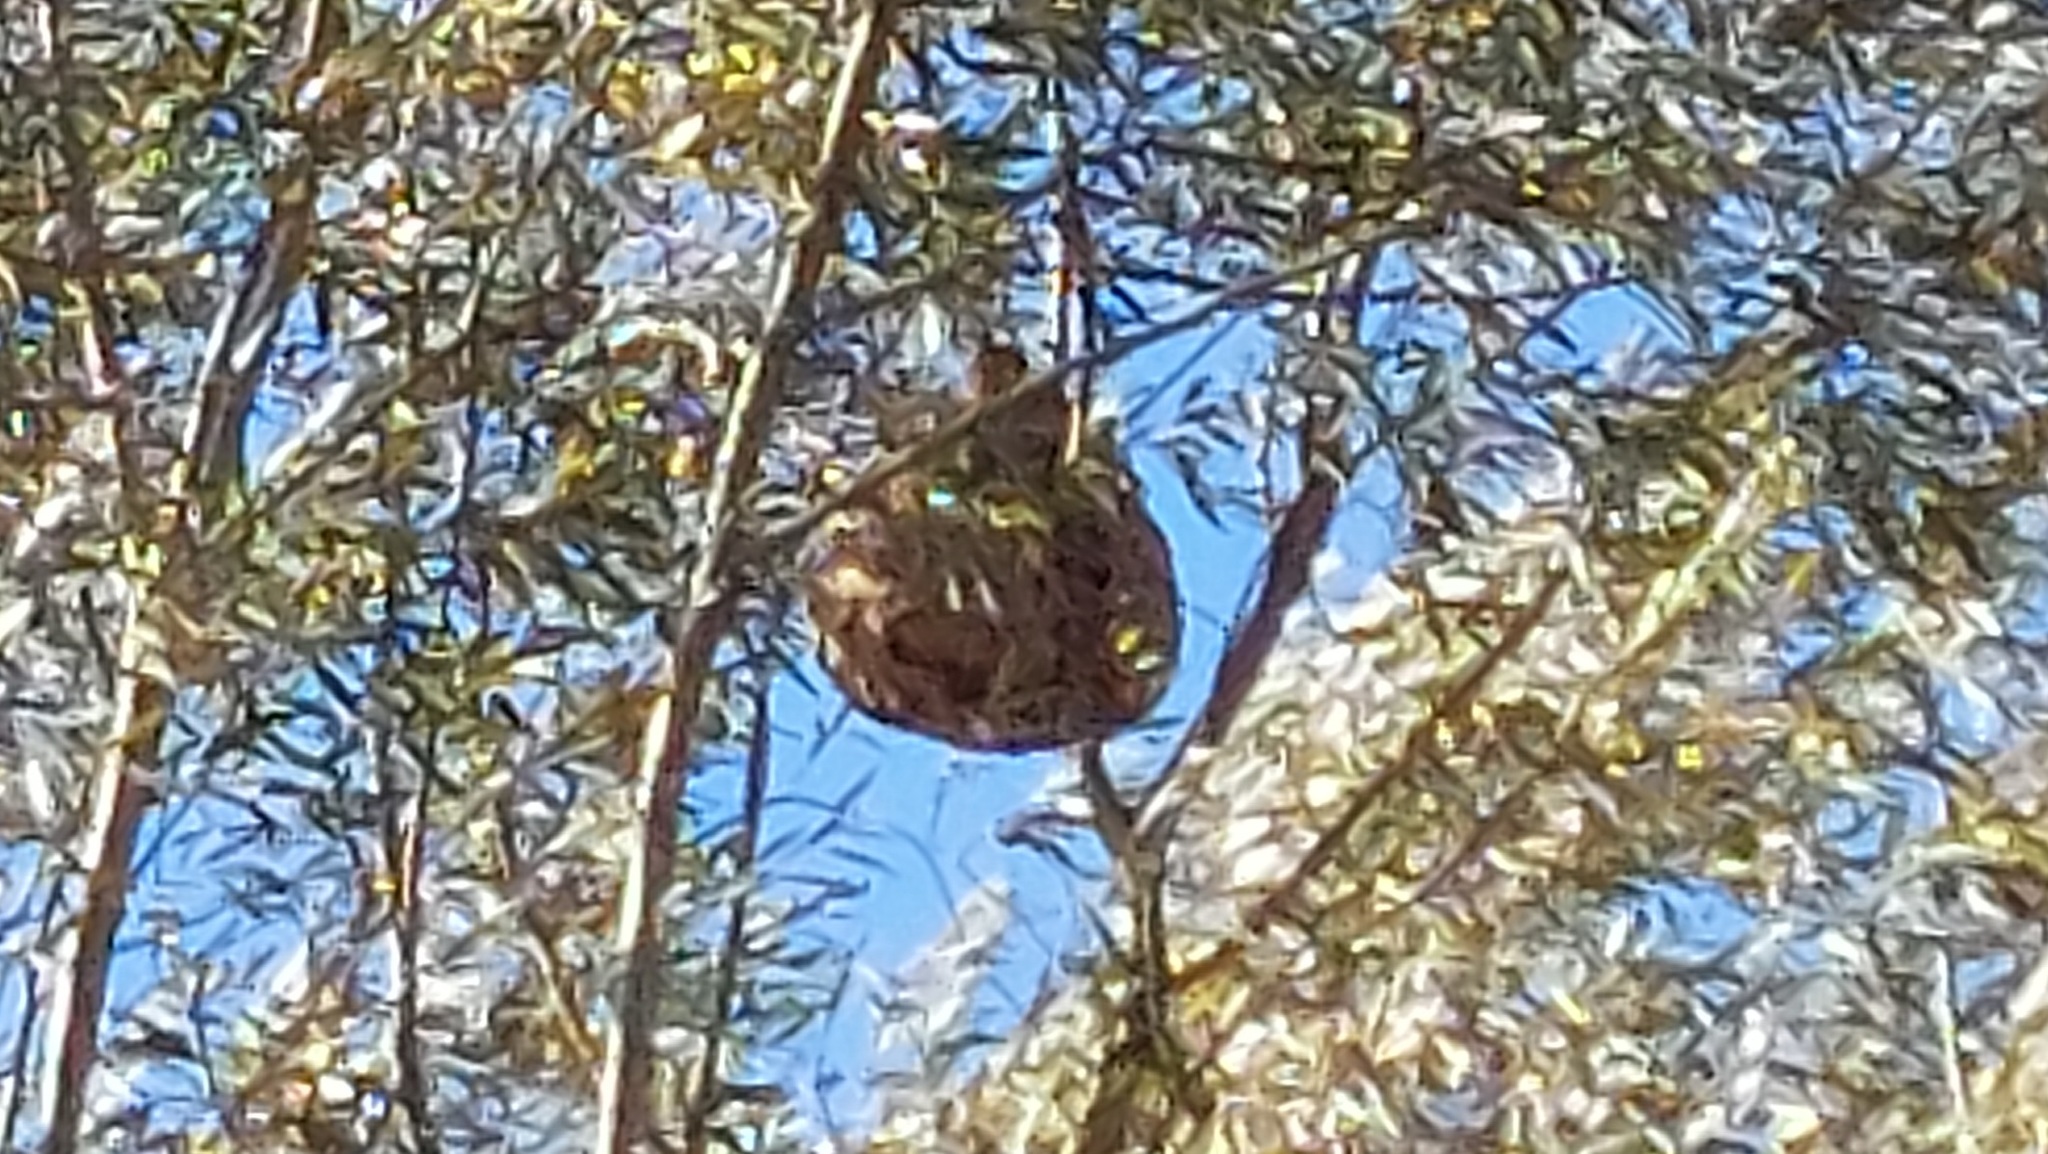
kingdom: Animalia
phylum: Arthropoda
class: Insecta
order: Hymenoptera
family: Vespidae
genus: Vespa
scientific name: Vespa velutina
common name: Asian hornet
